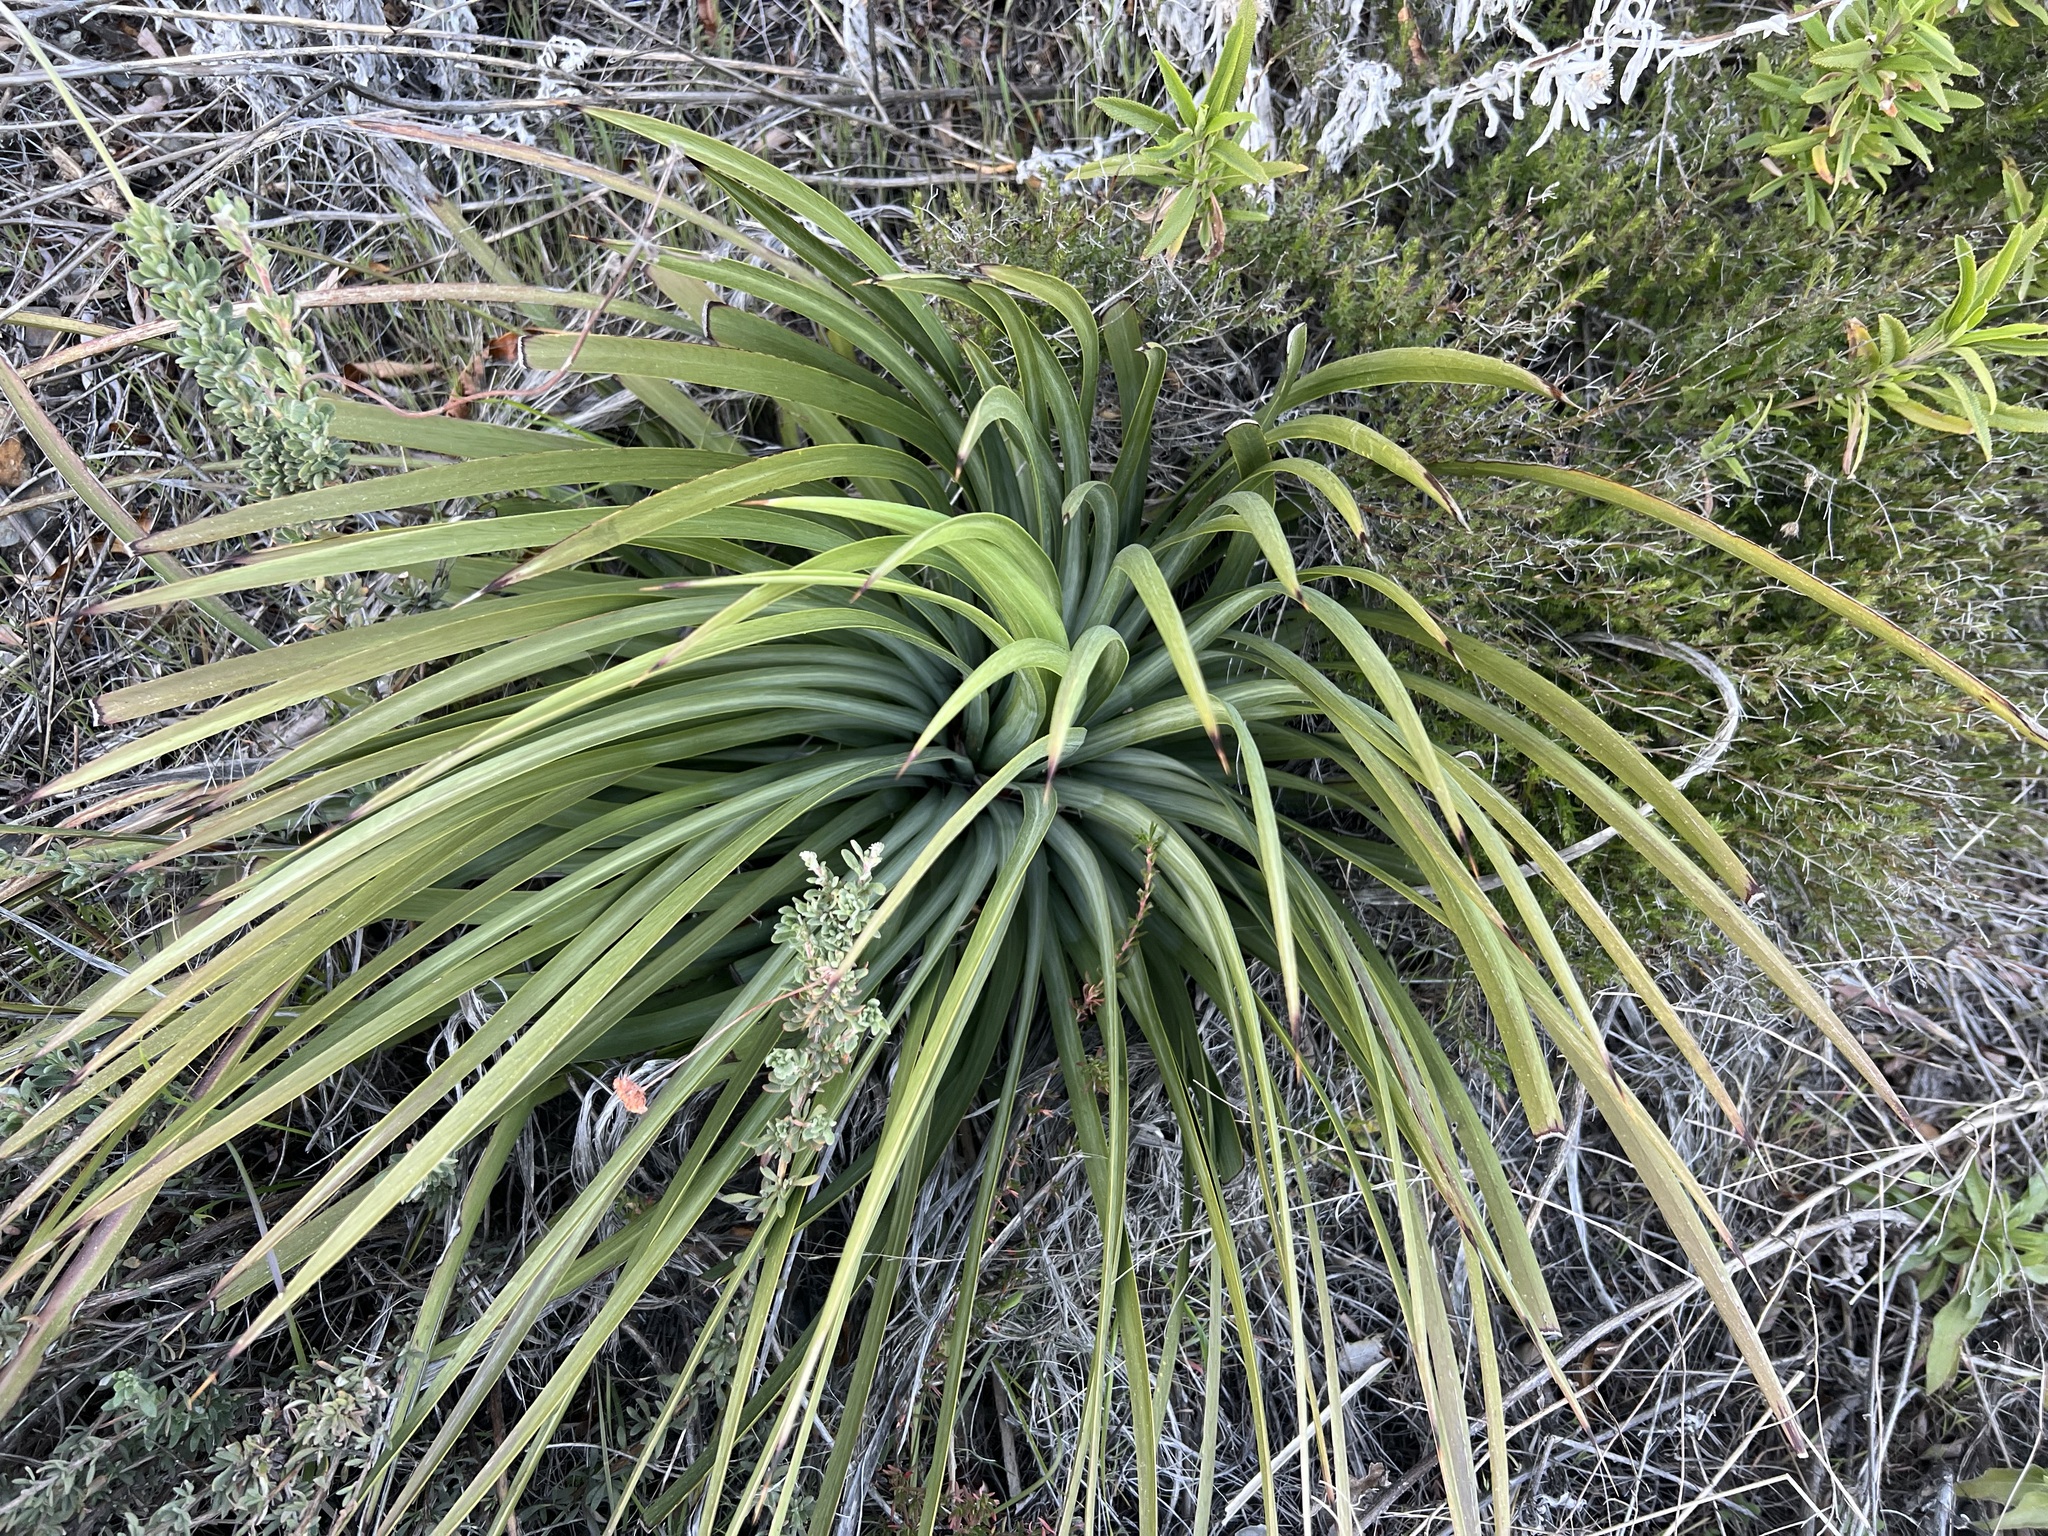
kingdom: Plantae
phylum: Tracheophyta
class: Liliopsida
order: Asparagales
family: Asparagaceae
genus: Hesperoyucca
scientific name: Hesperoyucca whipplei
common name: Our lord's-candle
